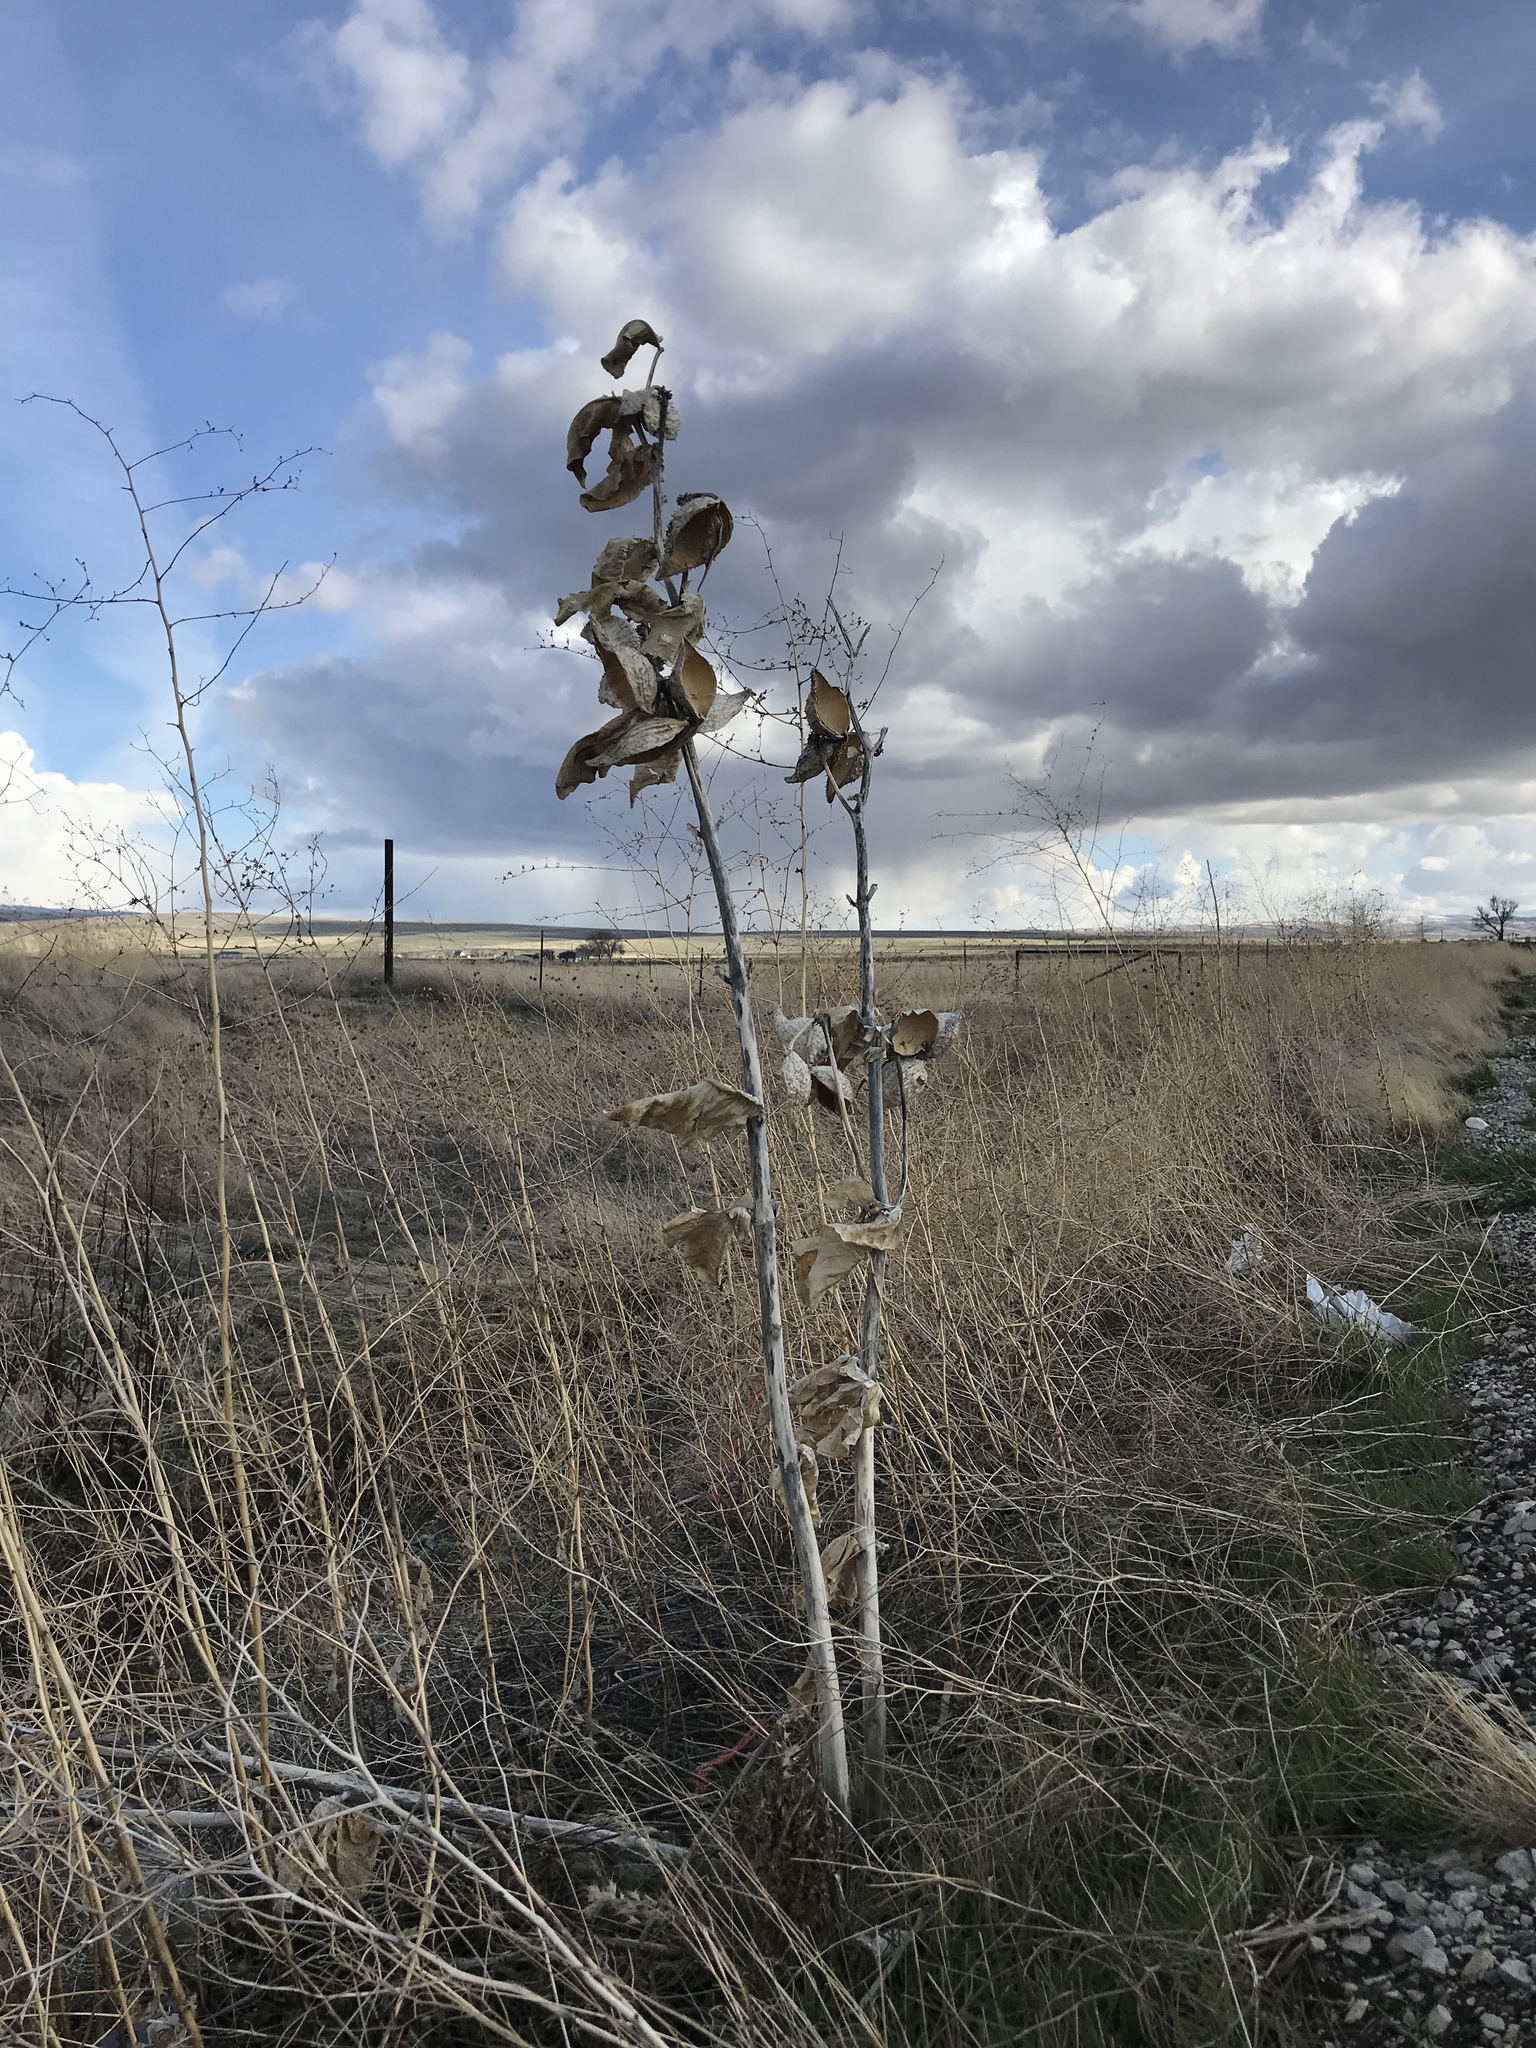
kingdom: Plantae
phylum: Tracheophyta
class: Magnoliopsida
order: Gentianales
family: Apocynaceae
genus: Asclepias
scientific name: Asclepias speciosa
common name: Showy milkweed
